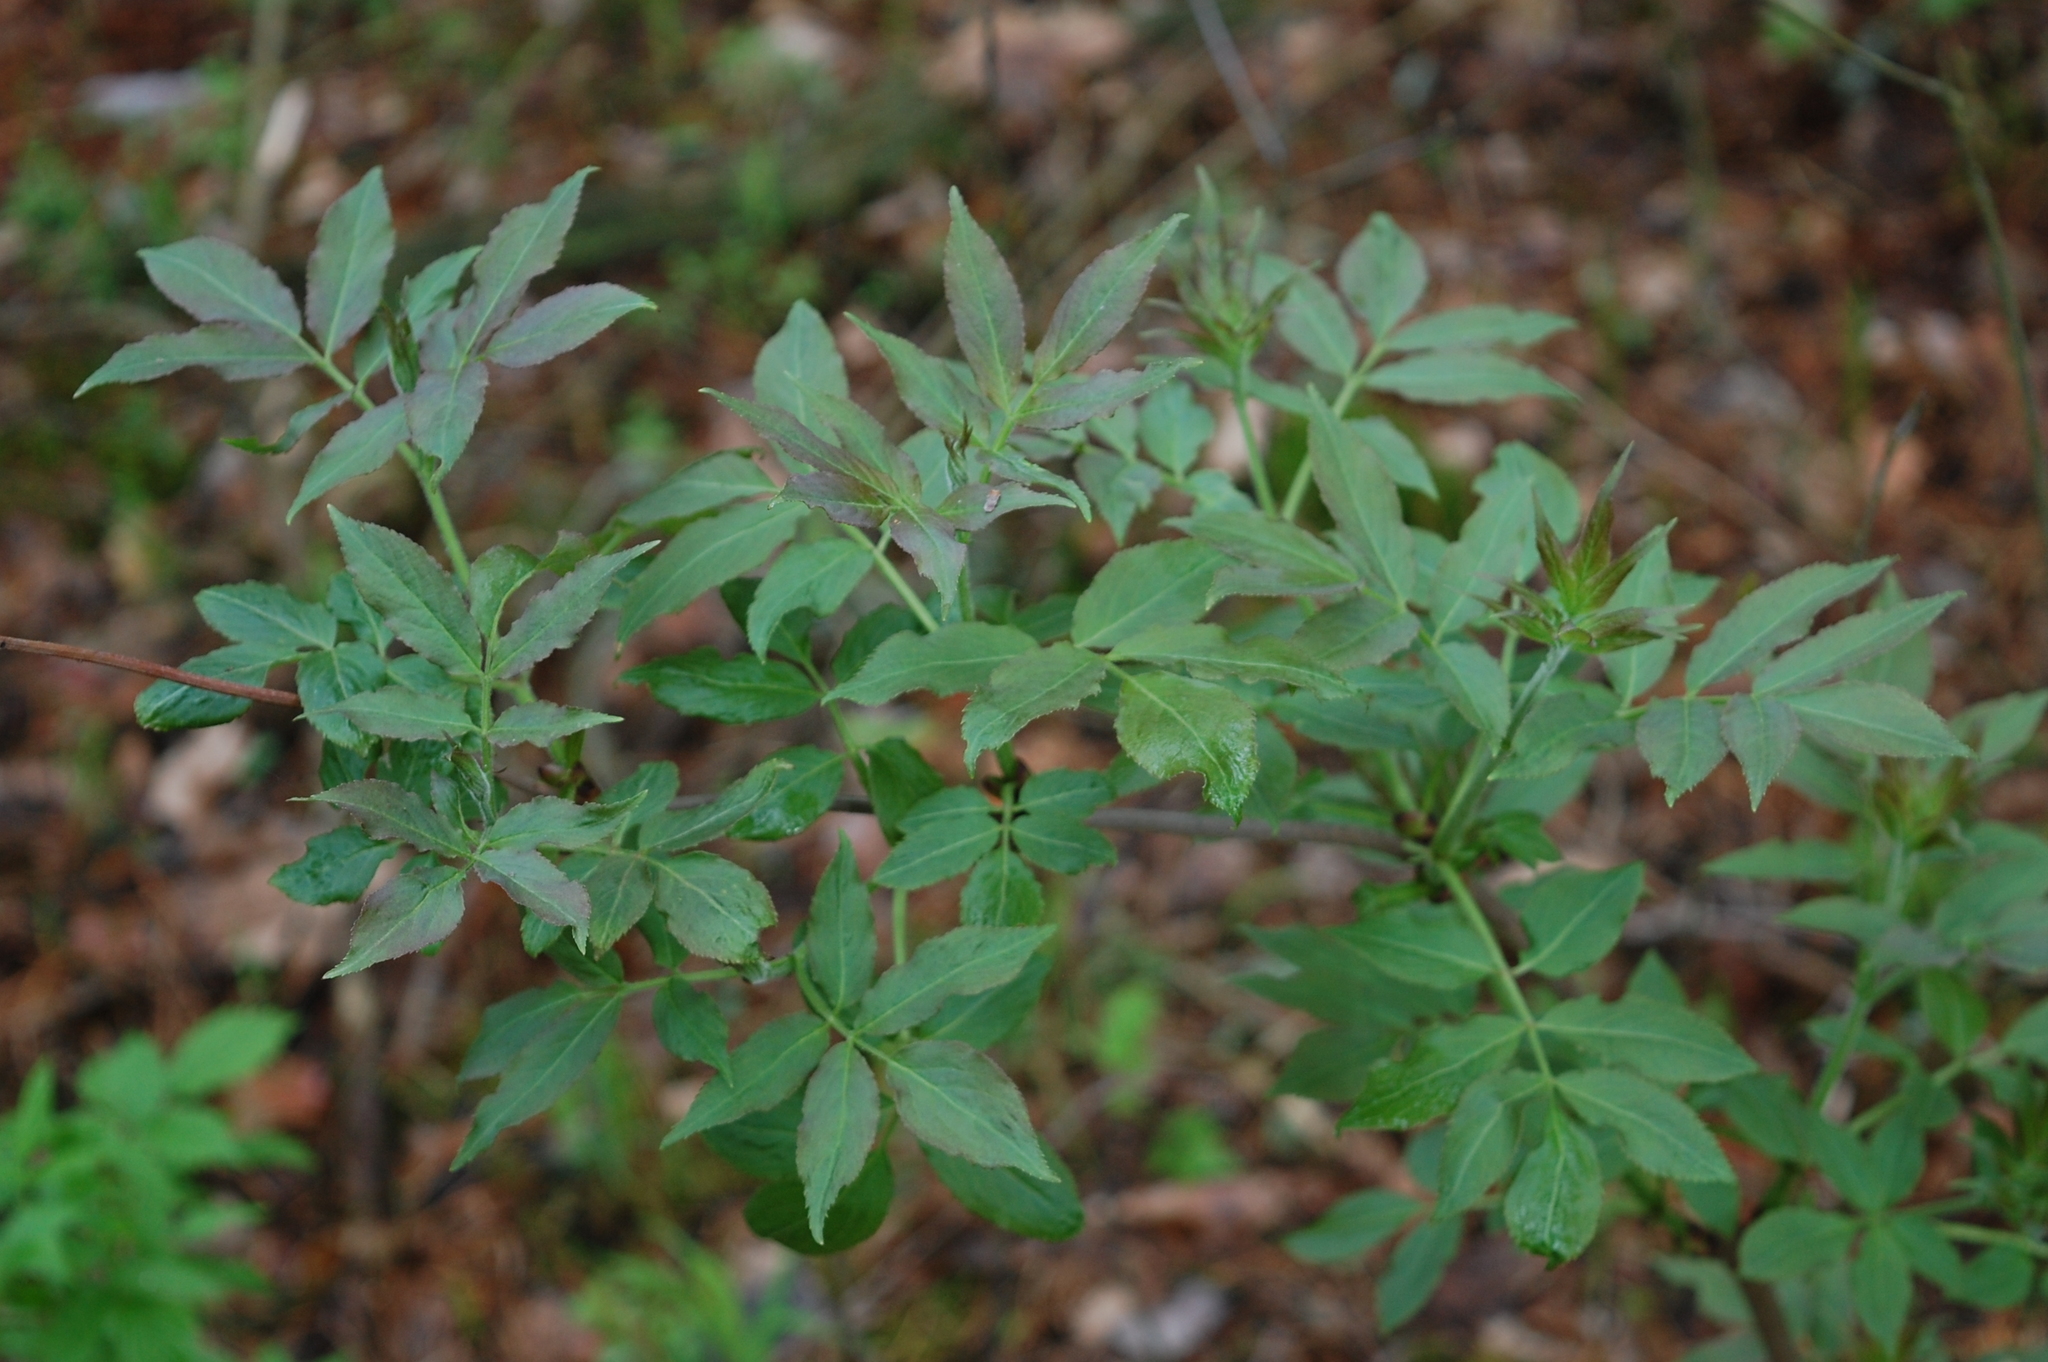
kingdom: Plantae
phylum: Tracheophyta
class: Magnoliopsida
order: Dipsacales
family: Viburnaceae
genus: Sambucus
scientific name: Sambucus racemosa
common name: Red-berried elder
